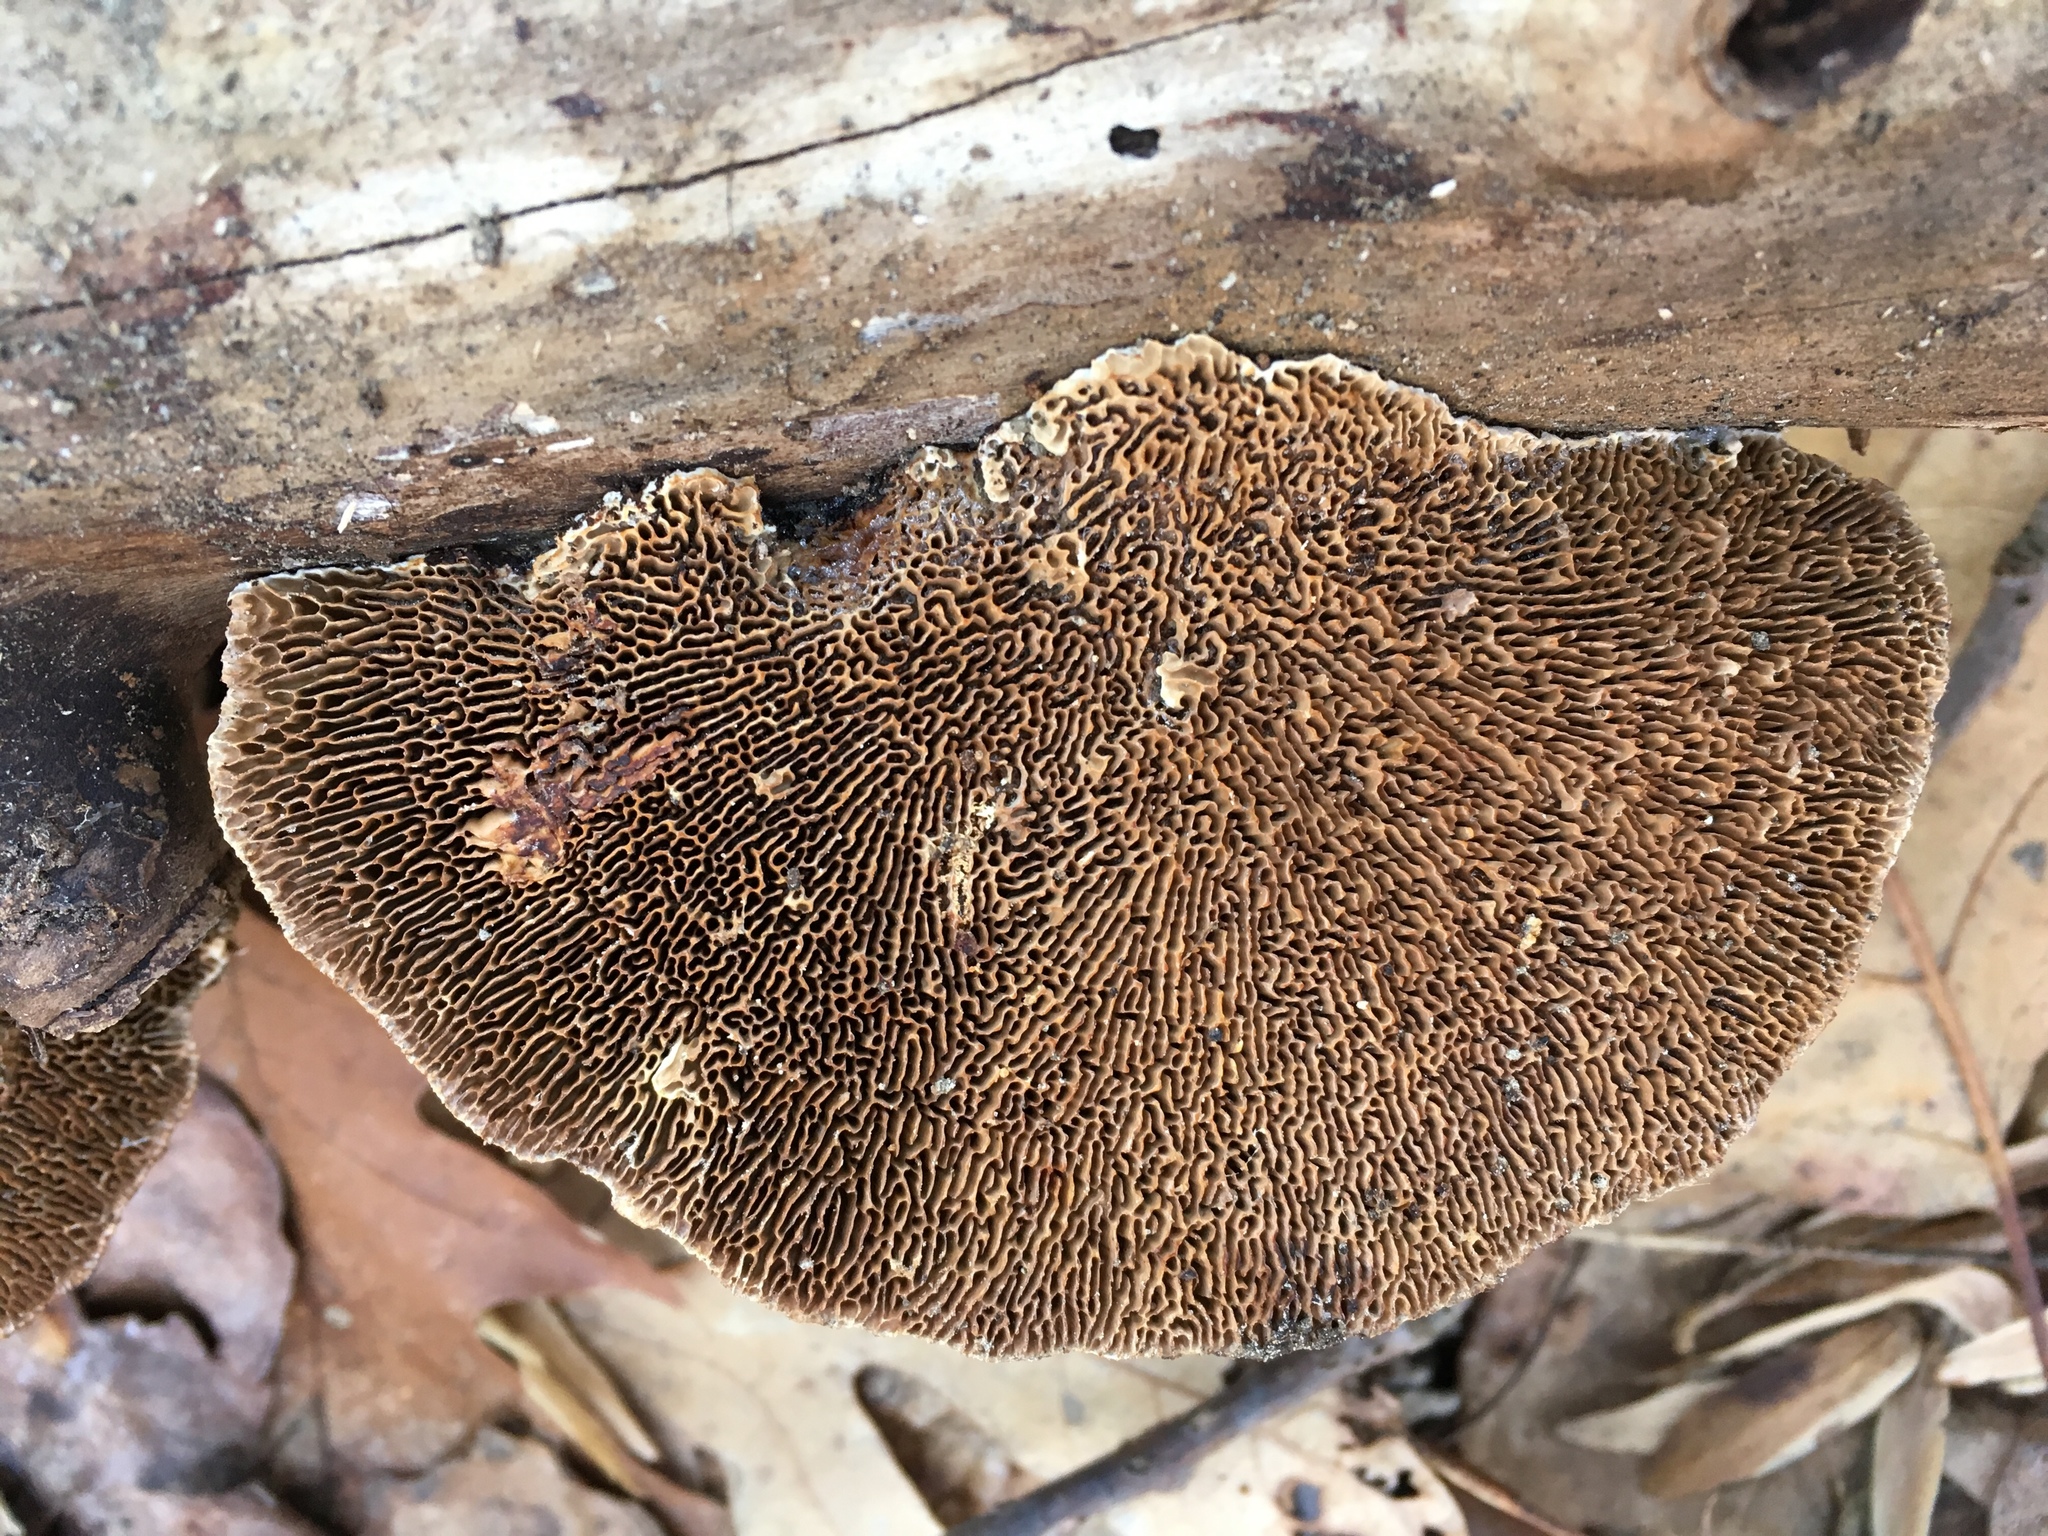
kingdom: Fungi
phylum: Basidiomycota
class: Agaricomycetes
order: Polyporales
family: Polyporaceae
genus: Daedaleopsis
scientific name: Daedaleopsis confragosa
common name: Blushing bracket
